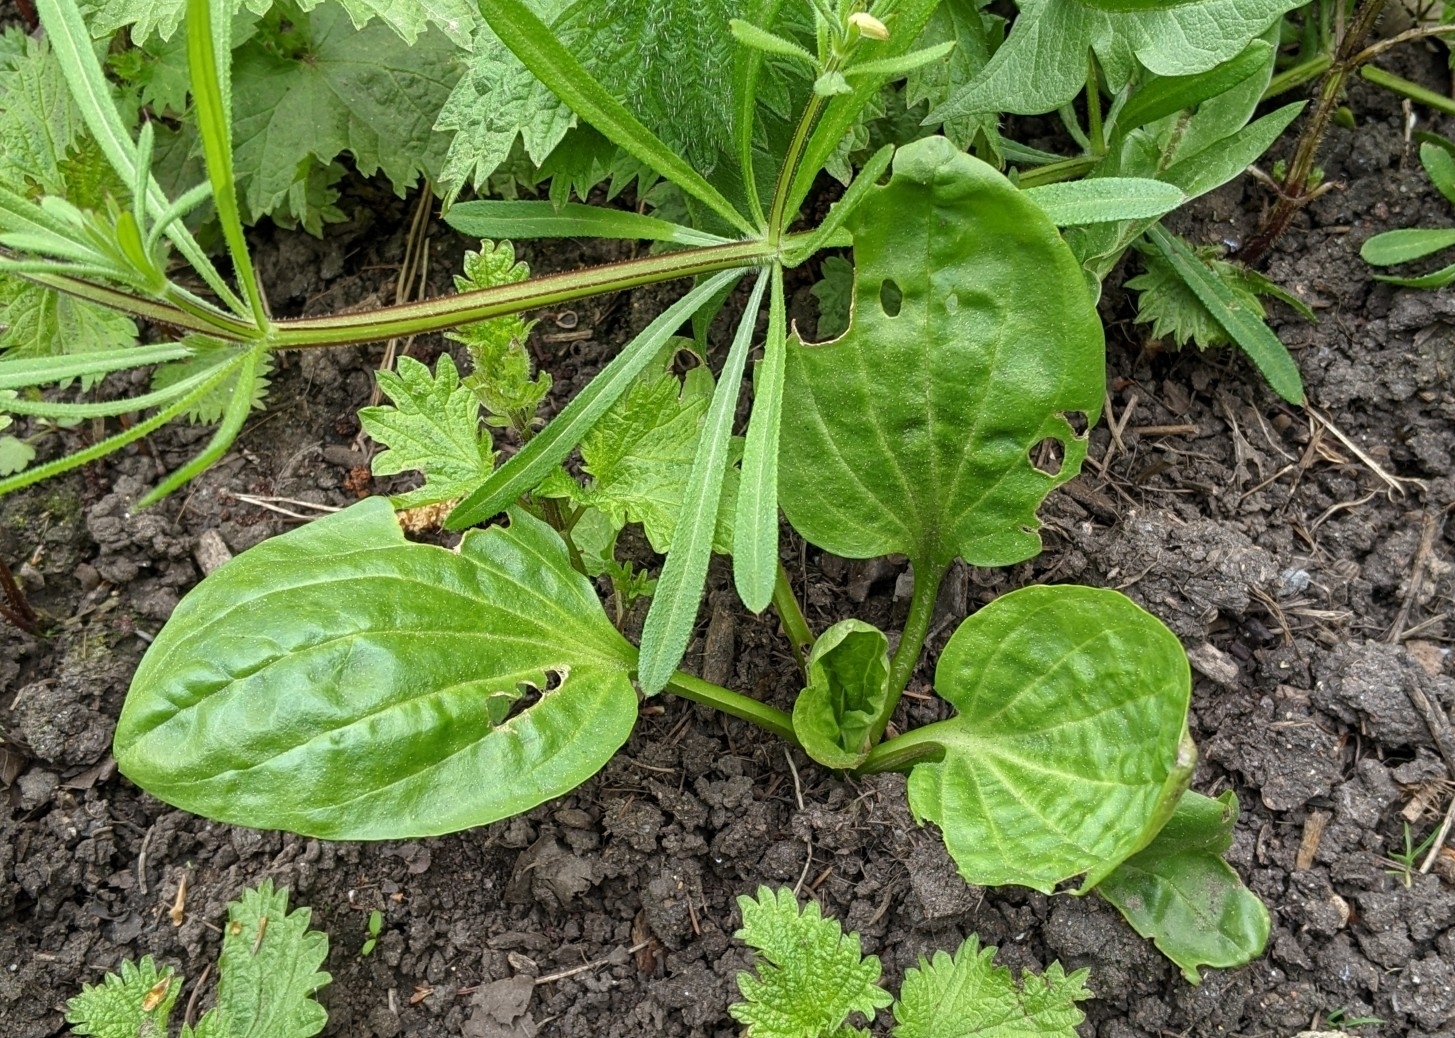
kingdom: Plantae
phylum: Tracheophyta
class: Magnoliopsida
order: Lamiales
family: Plantaginaceae
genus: Plantago
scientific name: Plantago major
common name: Common plantain
